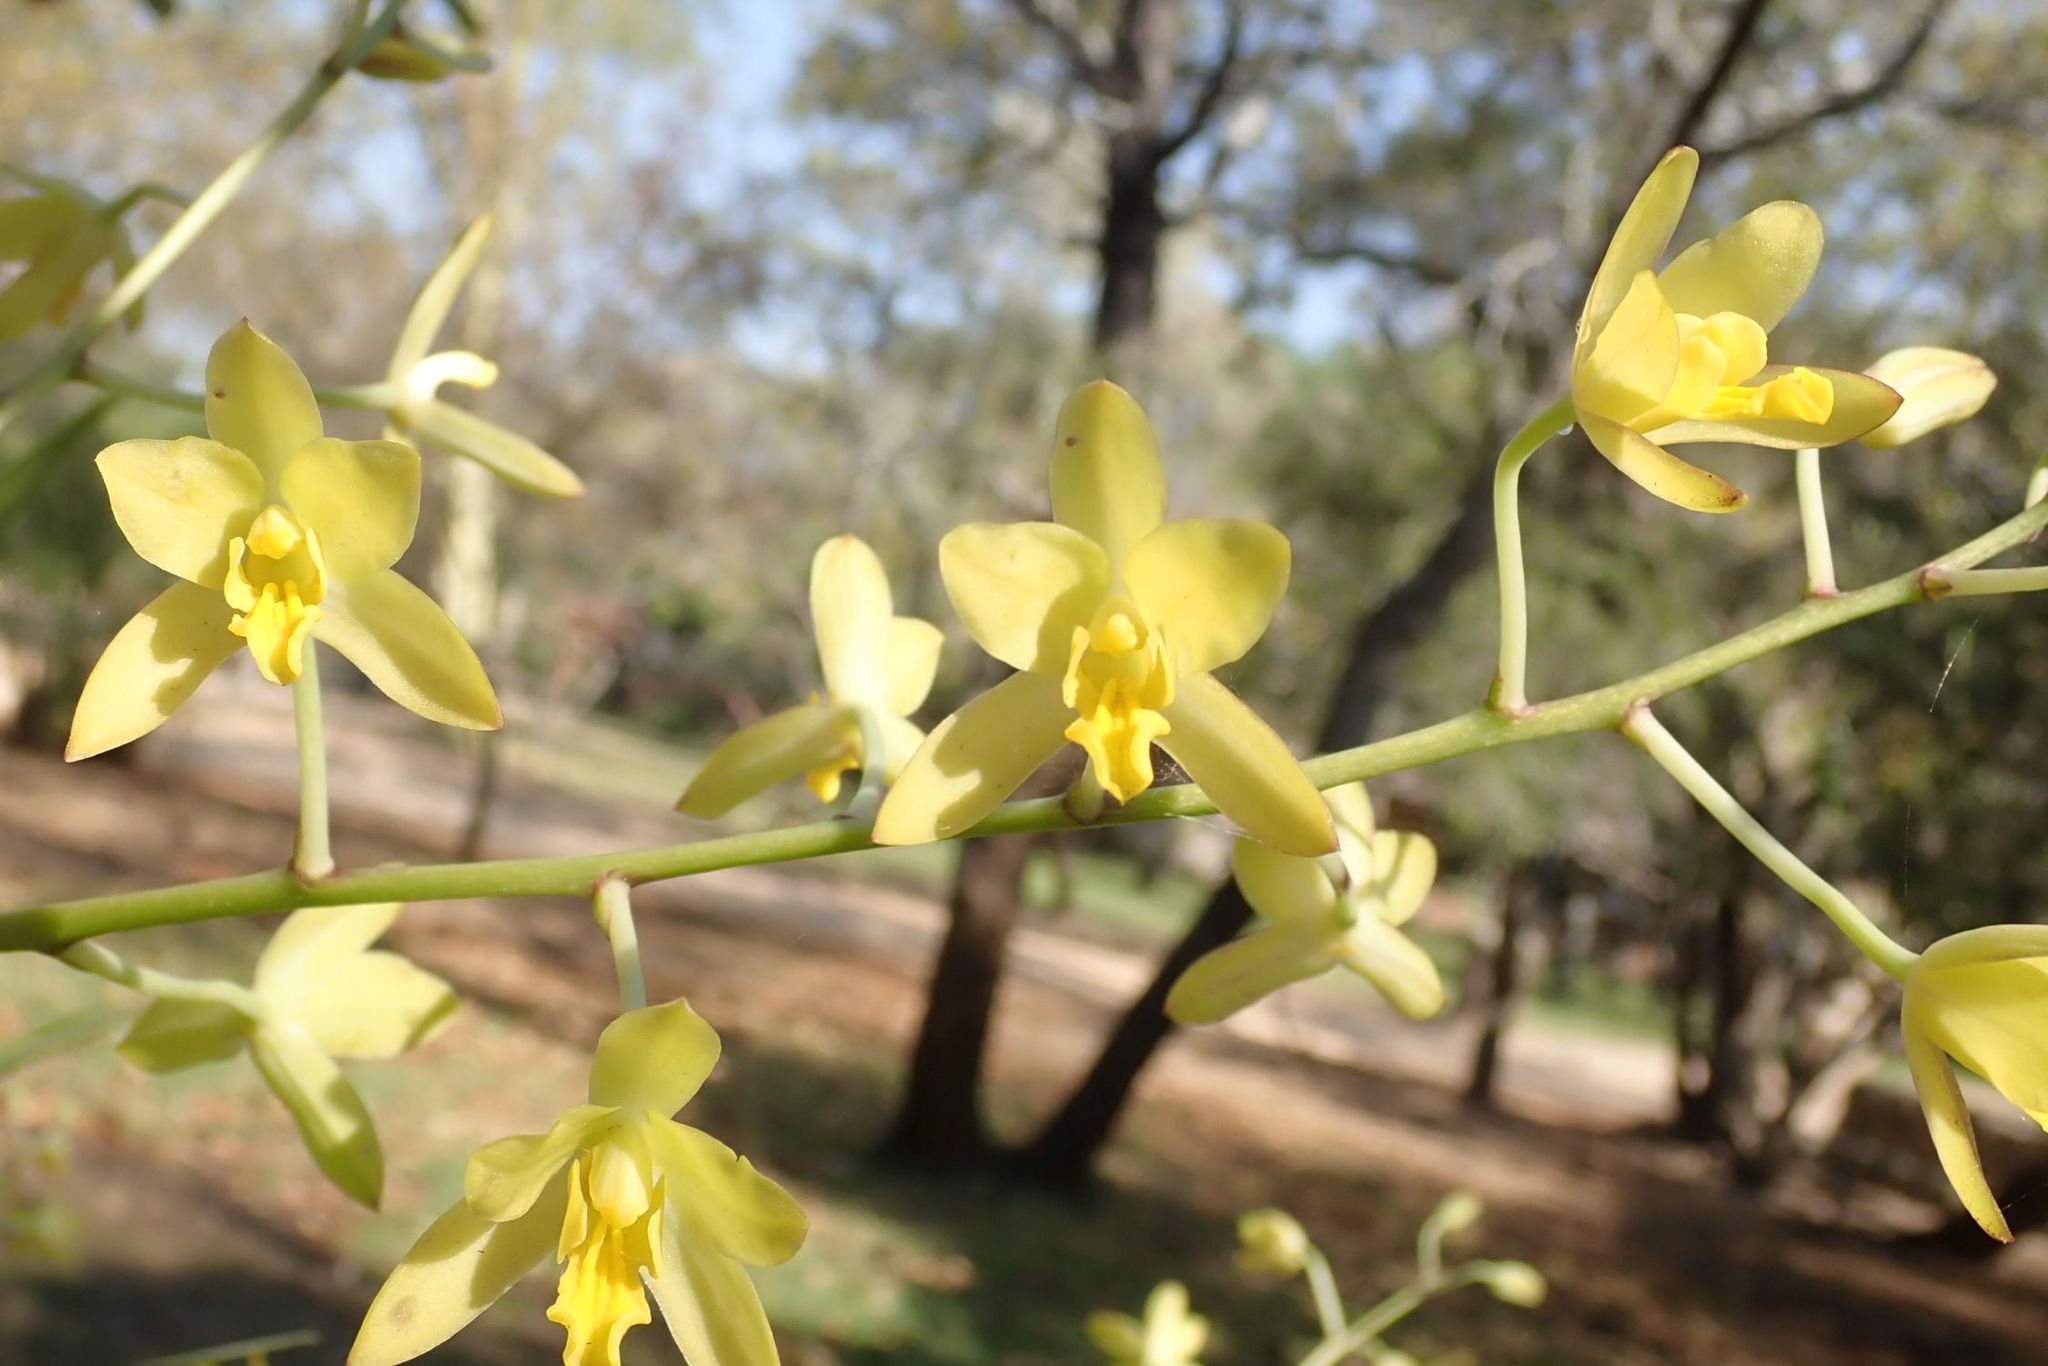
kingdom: Plantae
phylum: Tracheophyta
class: Liliopsida
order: Asparagales
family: Orchidaceae
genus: Ansellia
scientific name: Ansellia africana
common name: African ansellia
